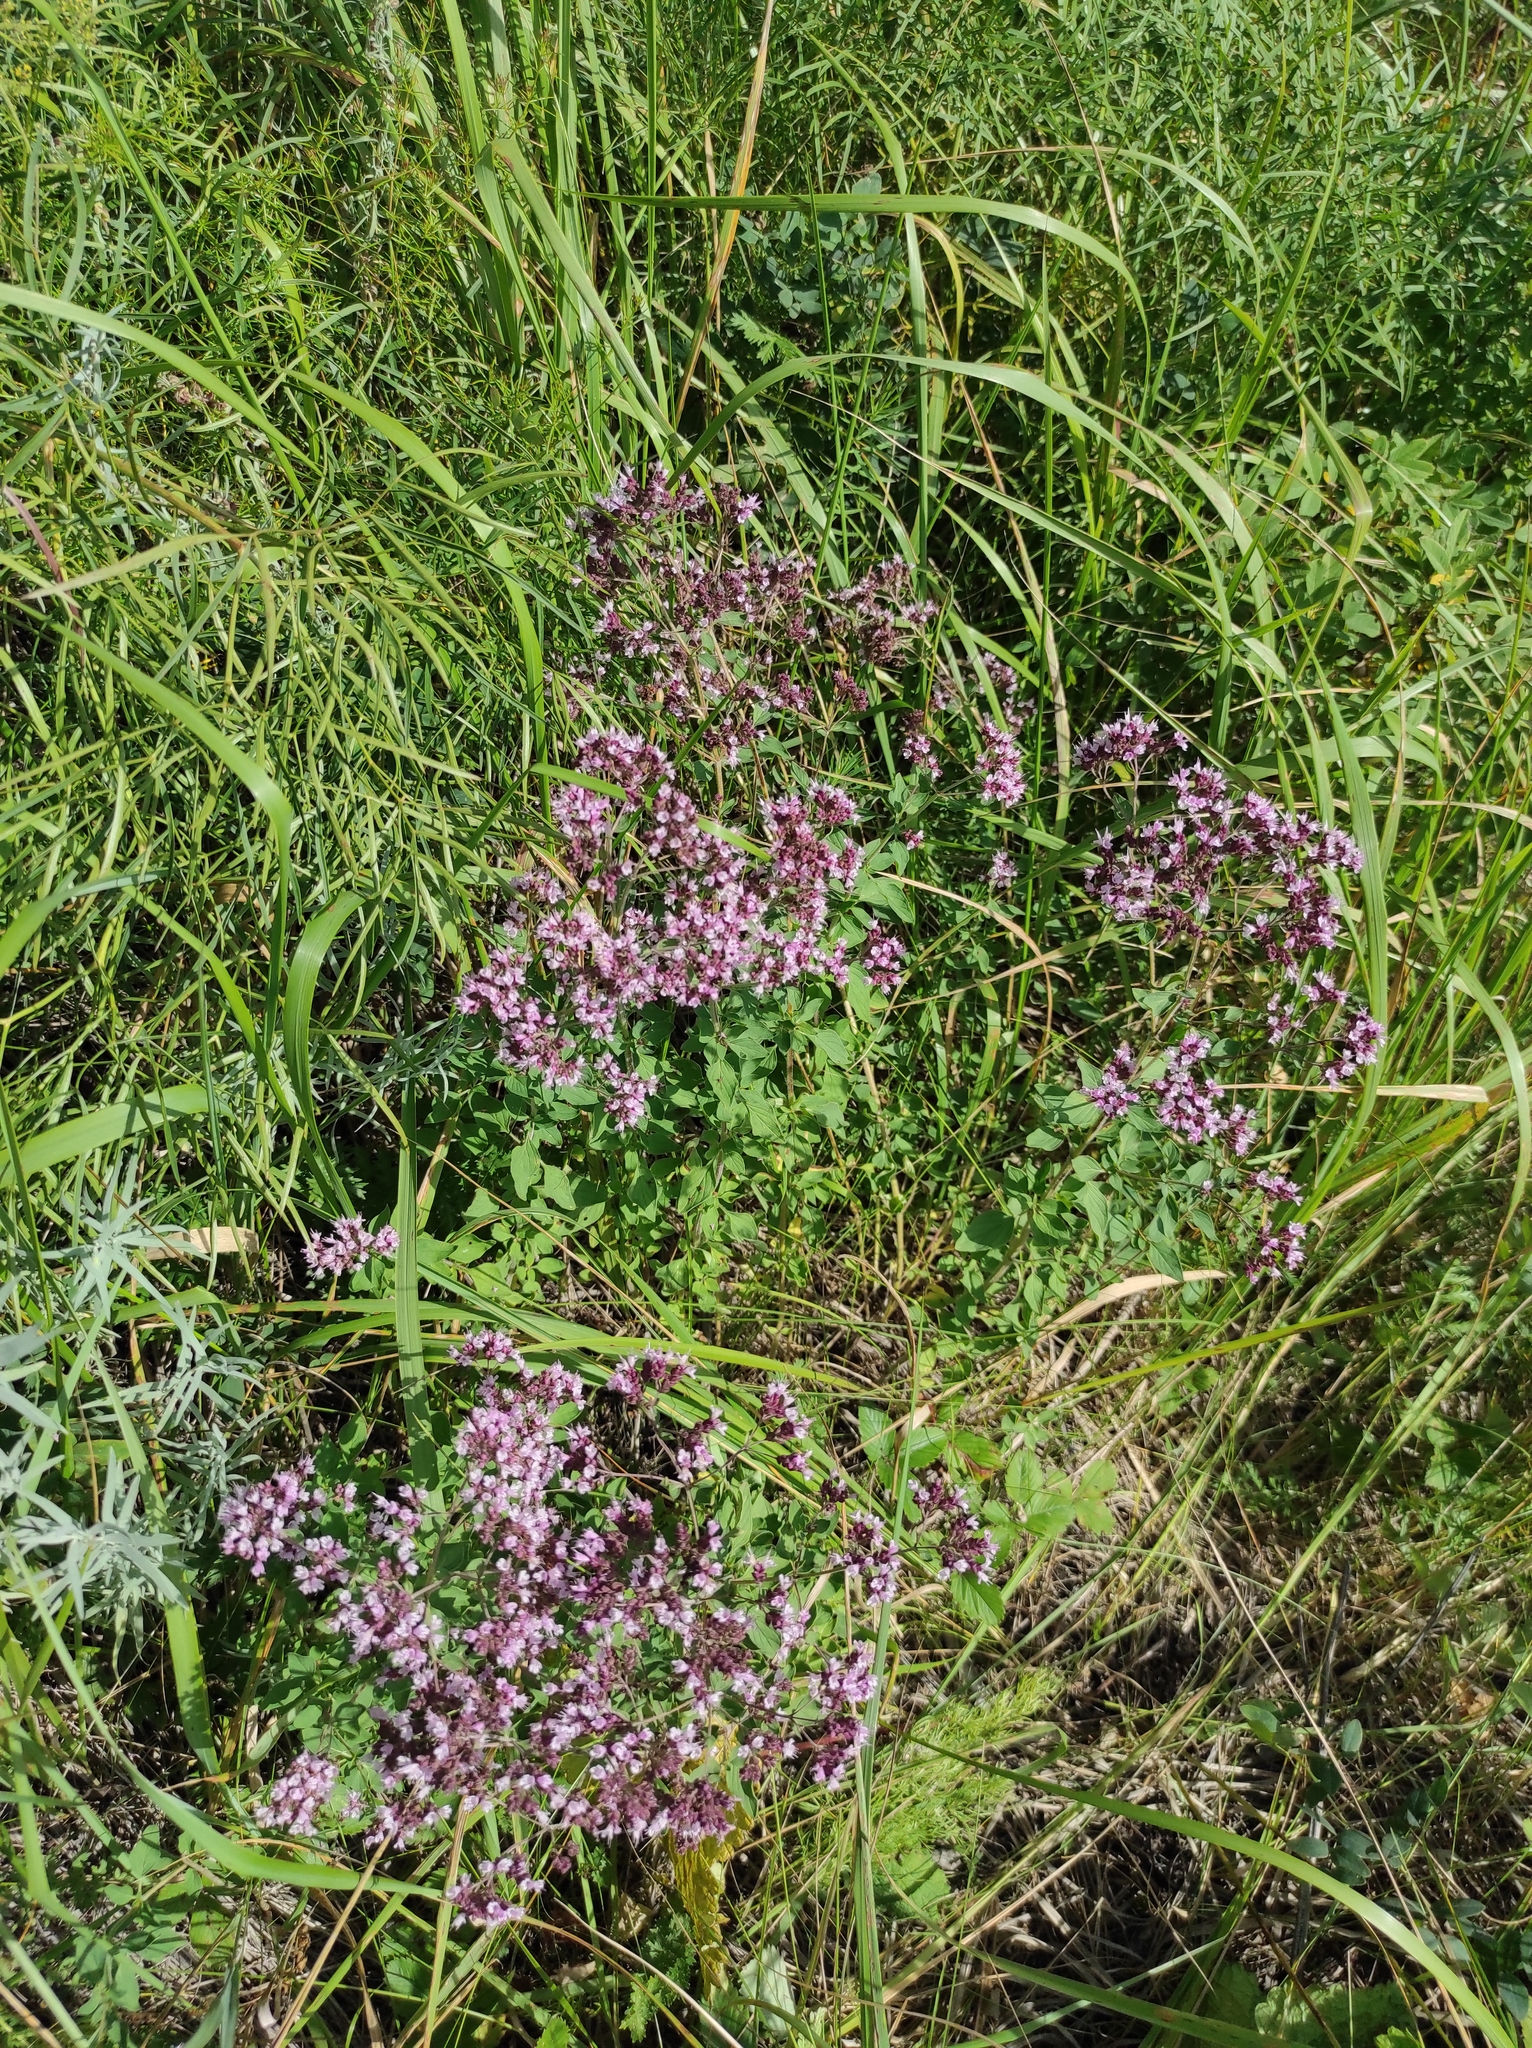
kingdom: Plantae
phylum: Tracheophyta
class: Magnoliopsida
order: Lamiales
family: Lamiaceae
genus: Origanum
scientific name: Origanum vulgare
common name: Wild marjoram
